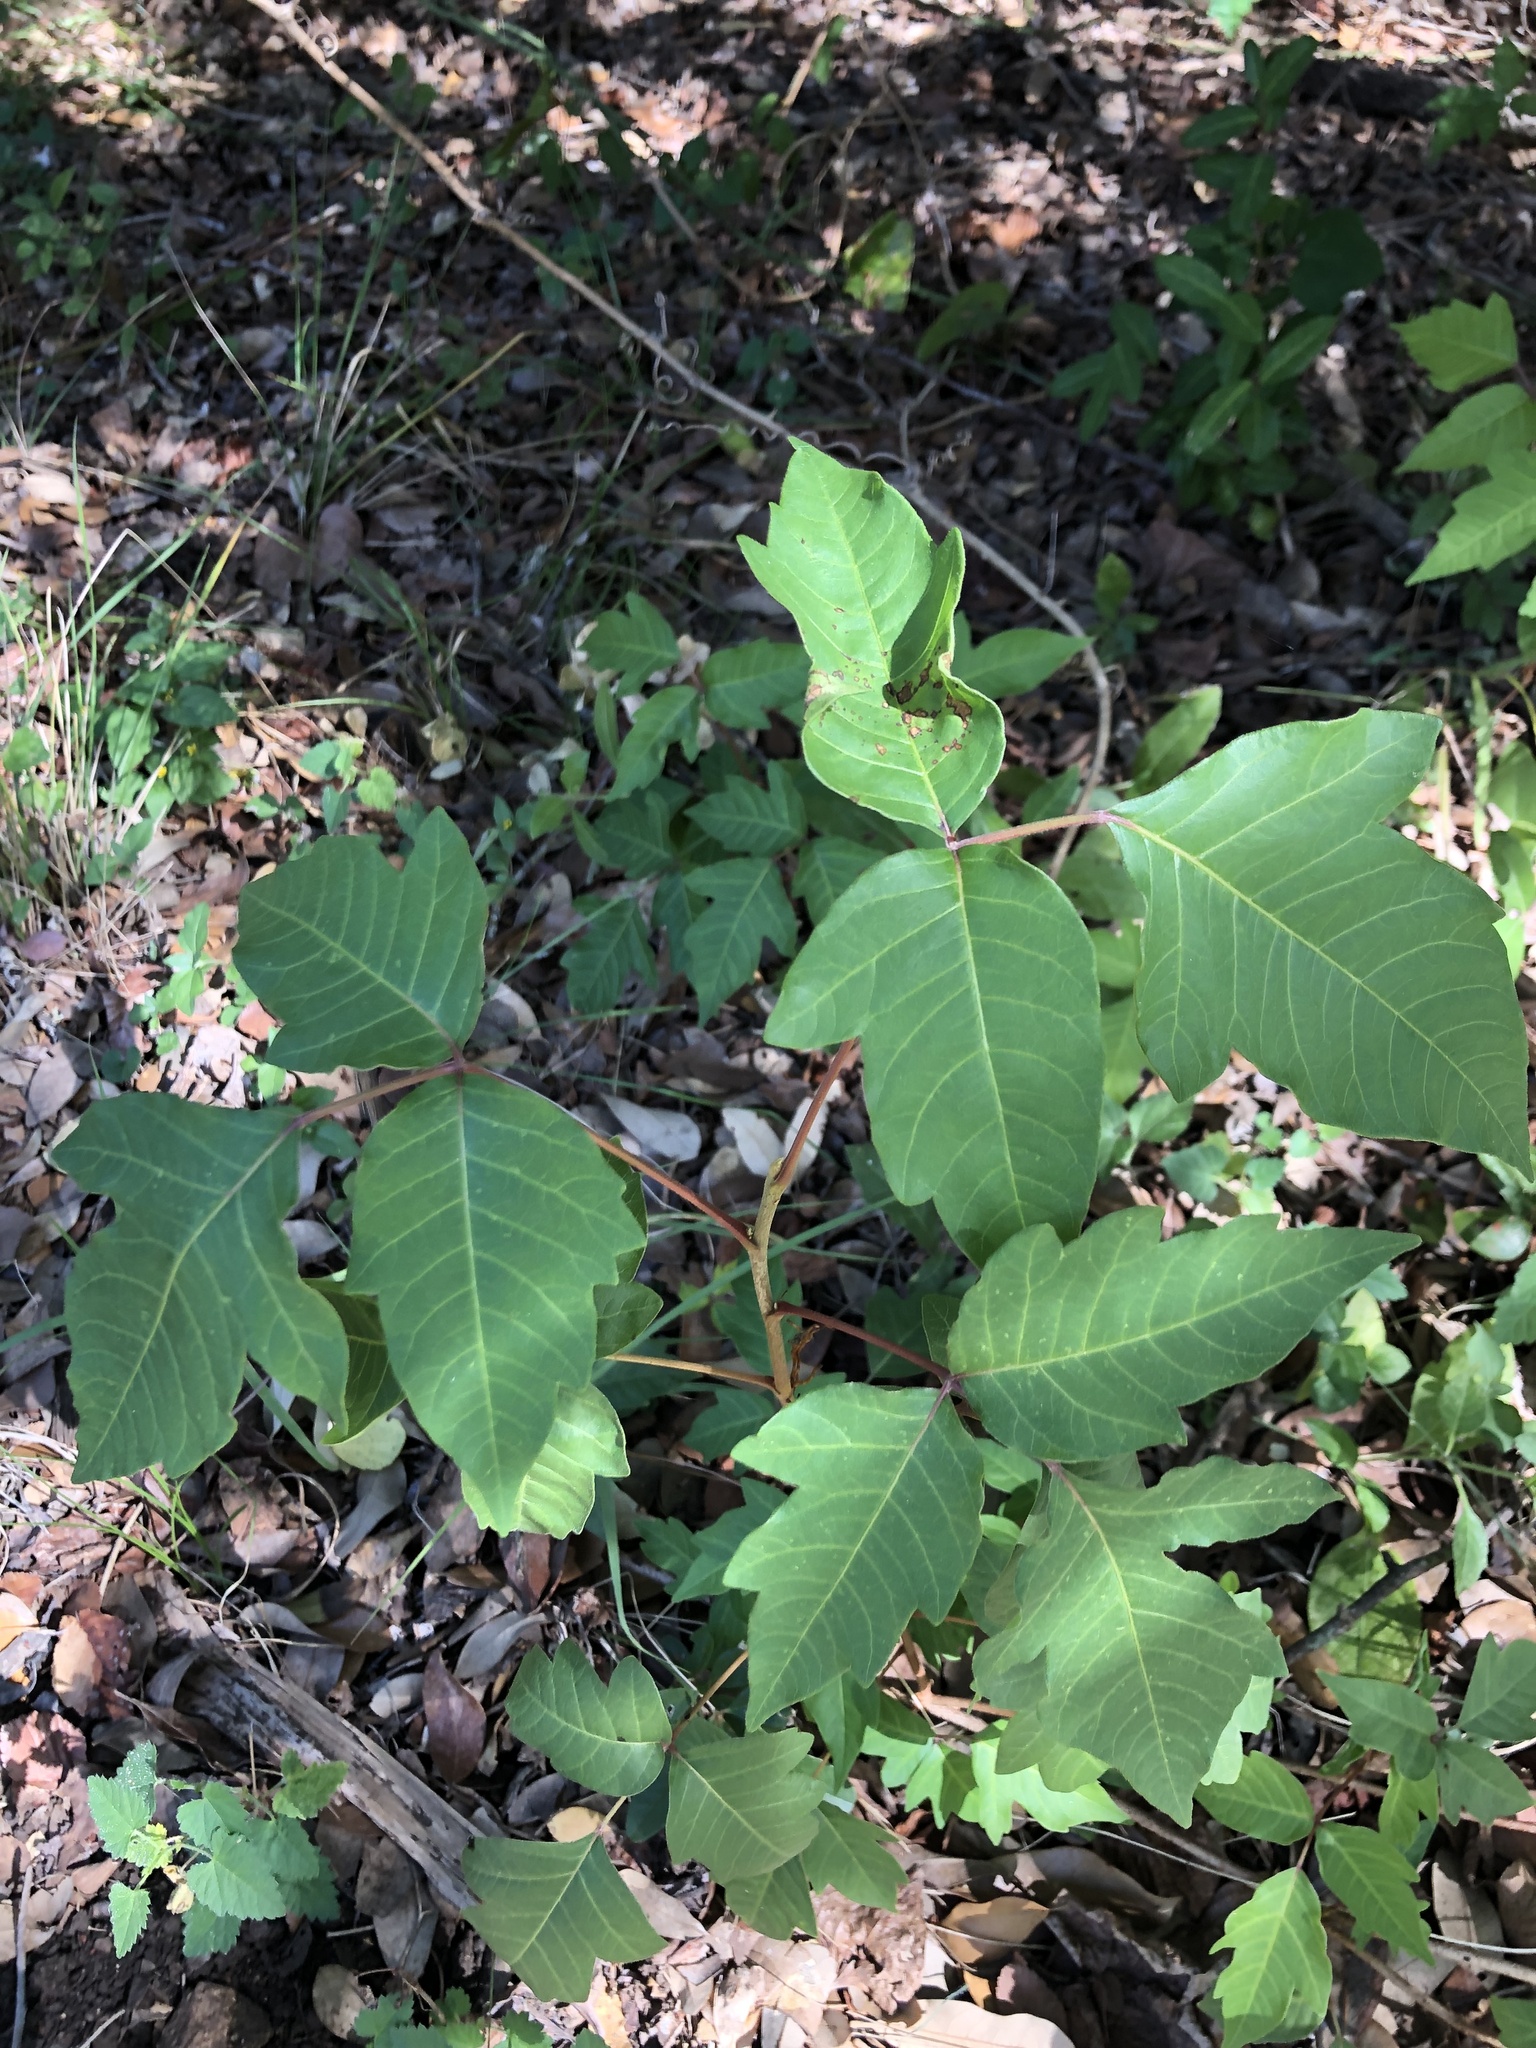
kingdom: Plantae
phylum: Tracheophyta
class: Magnoliopsida
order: Sapindales
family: Anacardiaceae
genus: Toxicodendron
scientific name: Toxicodendron radicans
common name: Poison ivy
